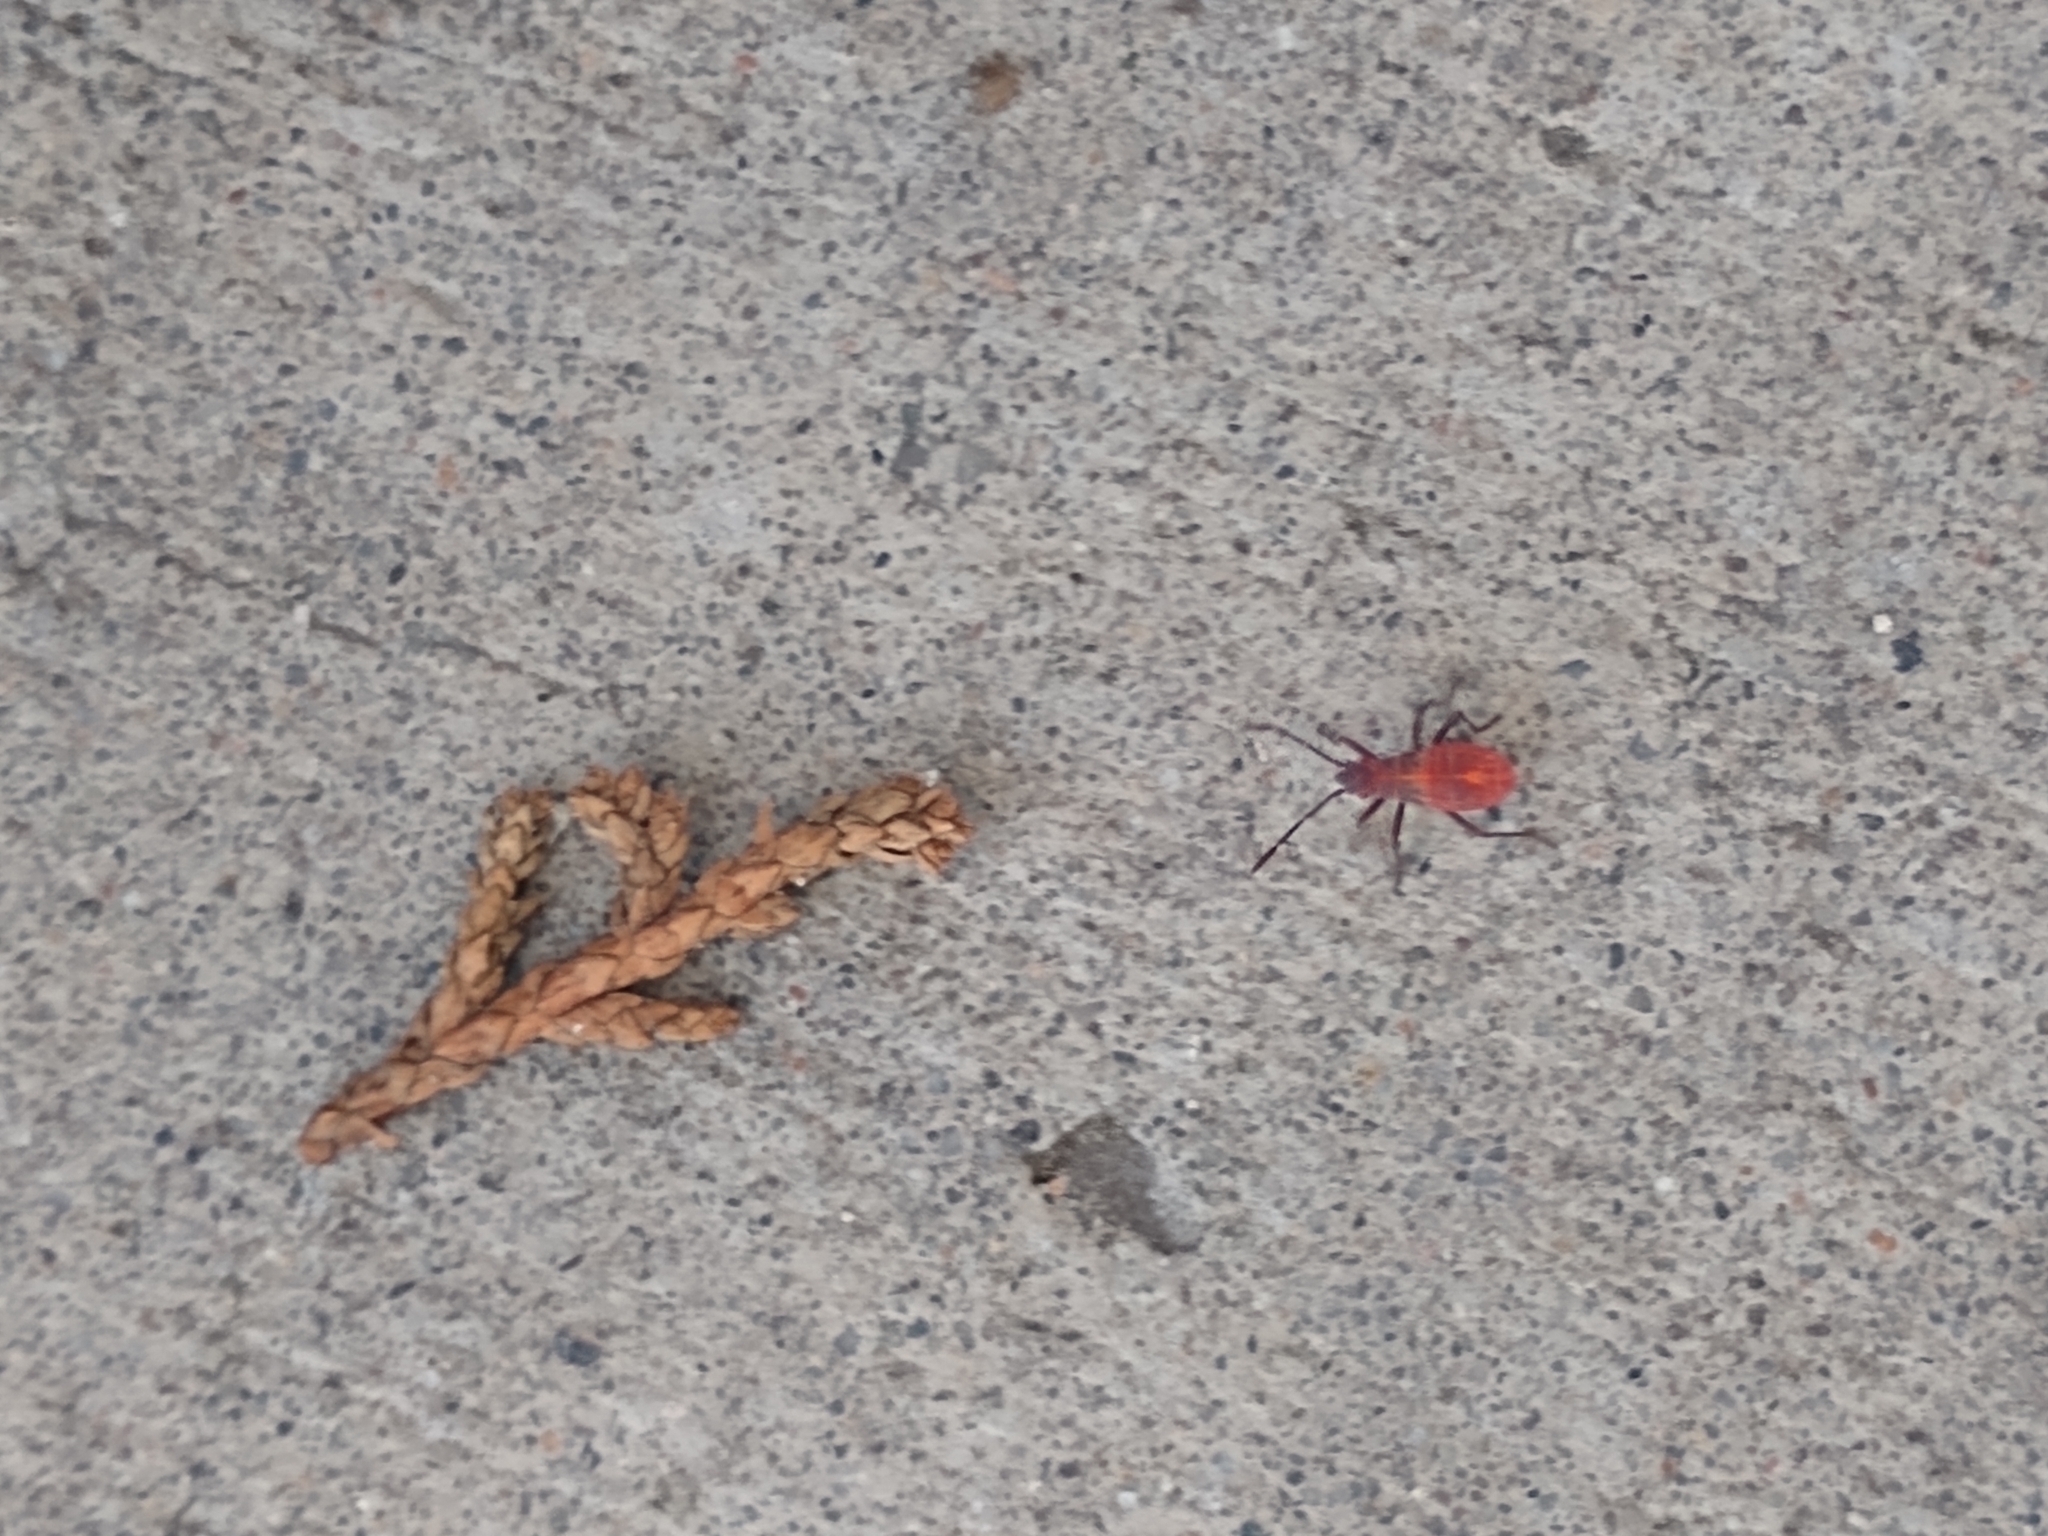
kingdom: Animalia
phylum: Arthropoda
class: Insecta
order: Hemiptera
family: Rhopalidae
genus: Boisea
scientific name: Boisea rubrolineata
